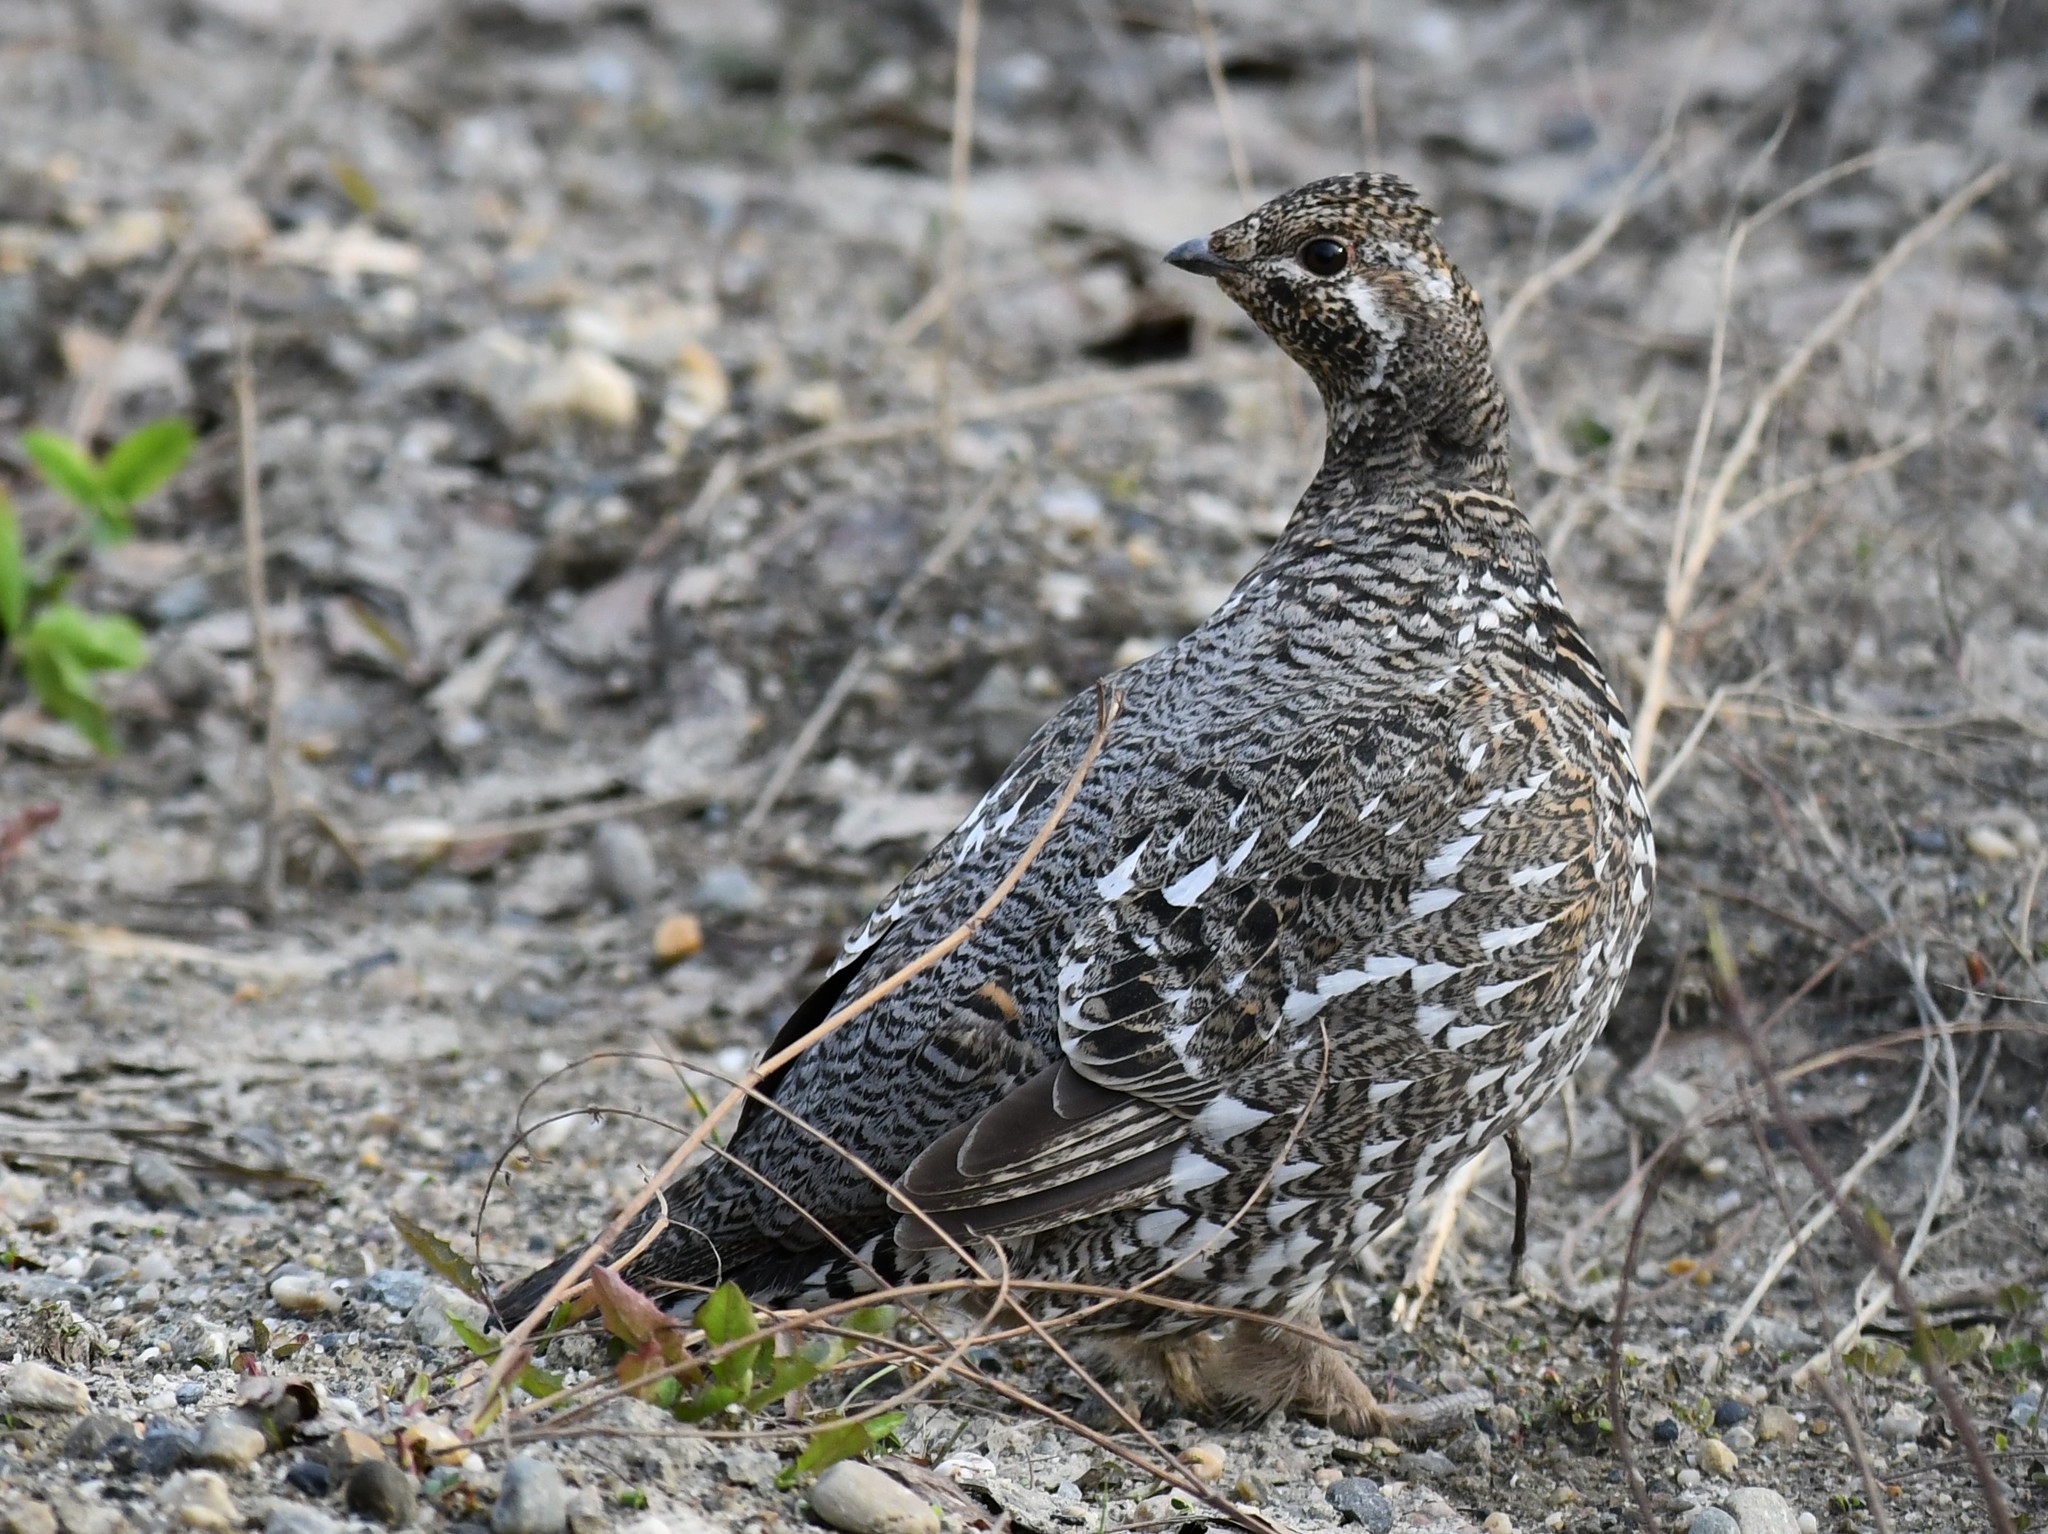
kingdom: Animalia
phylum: Chordata
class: Aves
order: Galliformes
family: Phasianidae
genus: Canachites
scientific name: Canachites canadensis
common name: Spruce grouse
